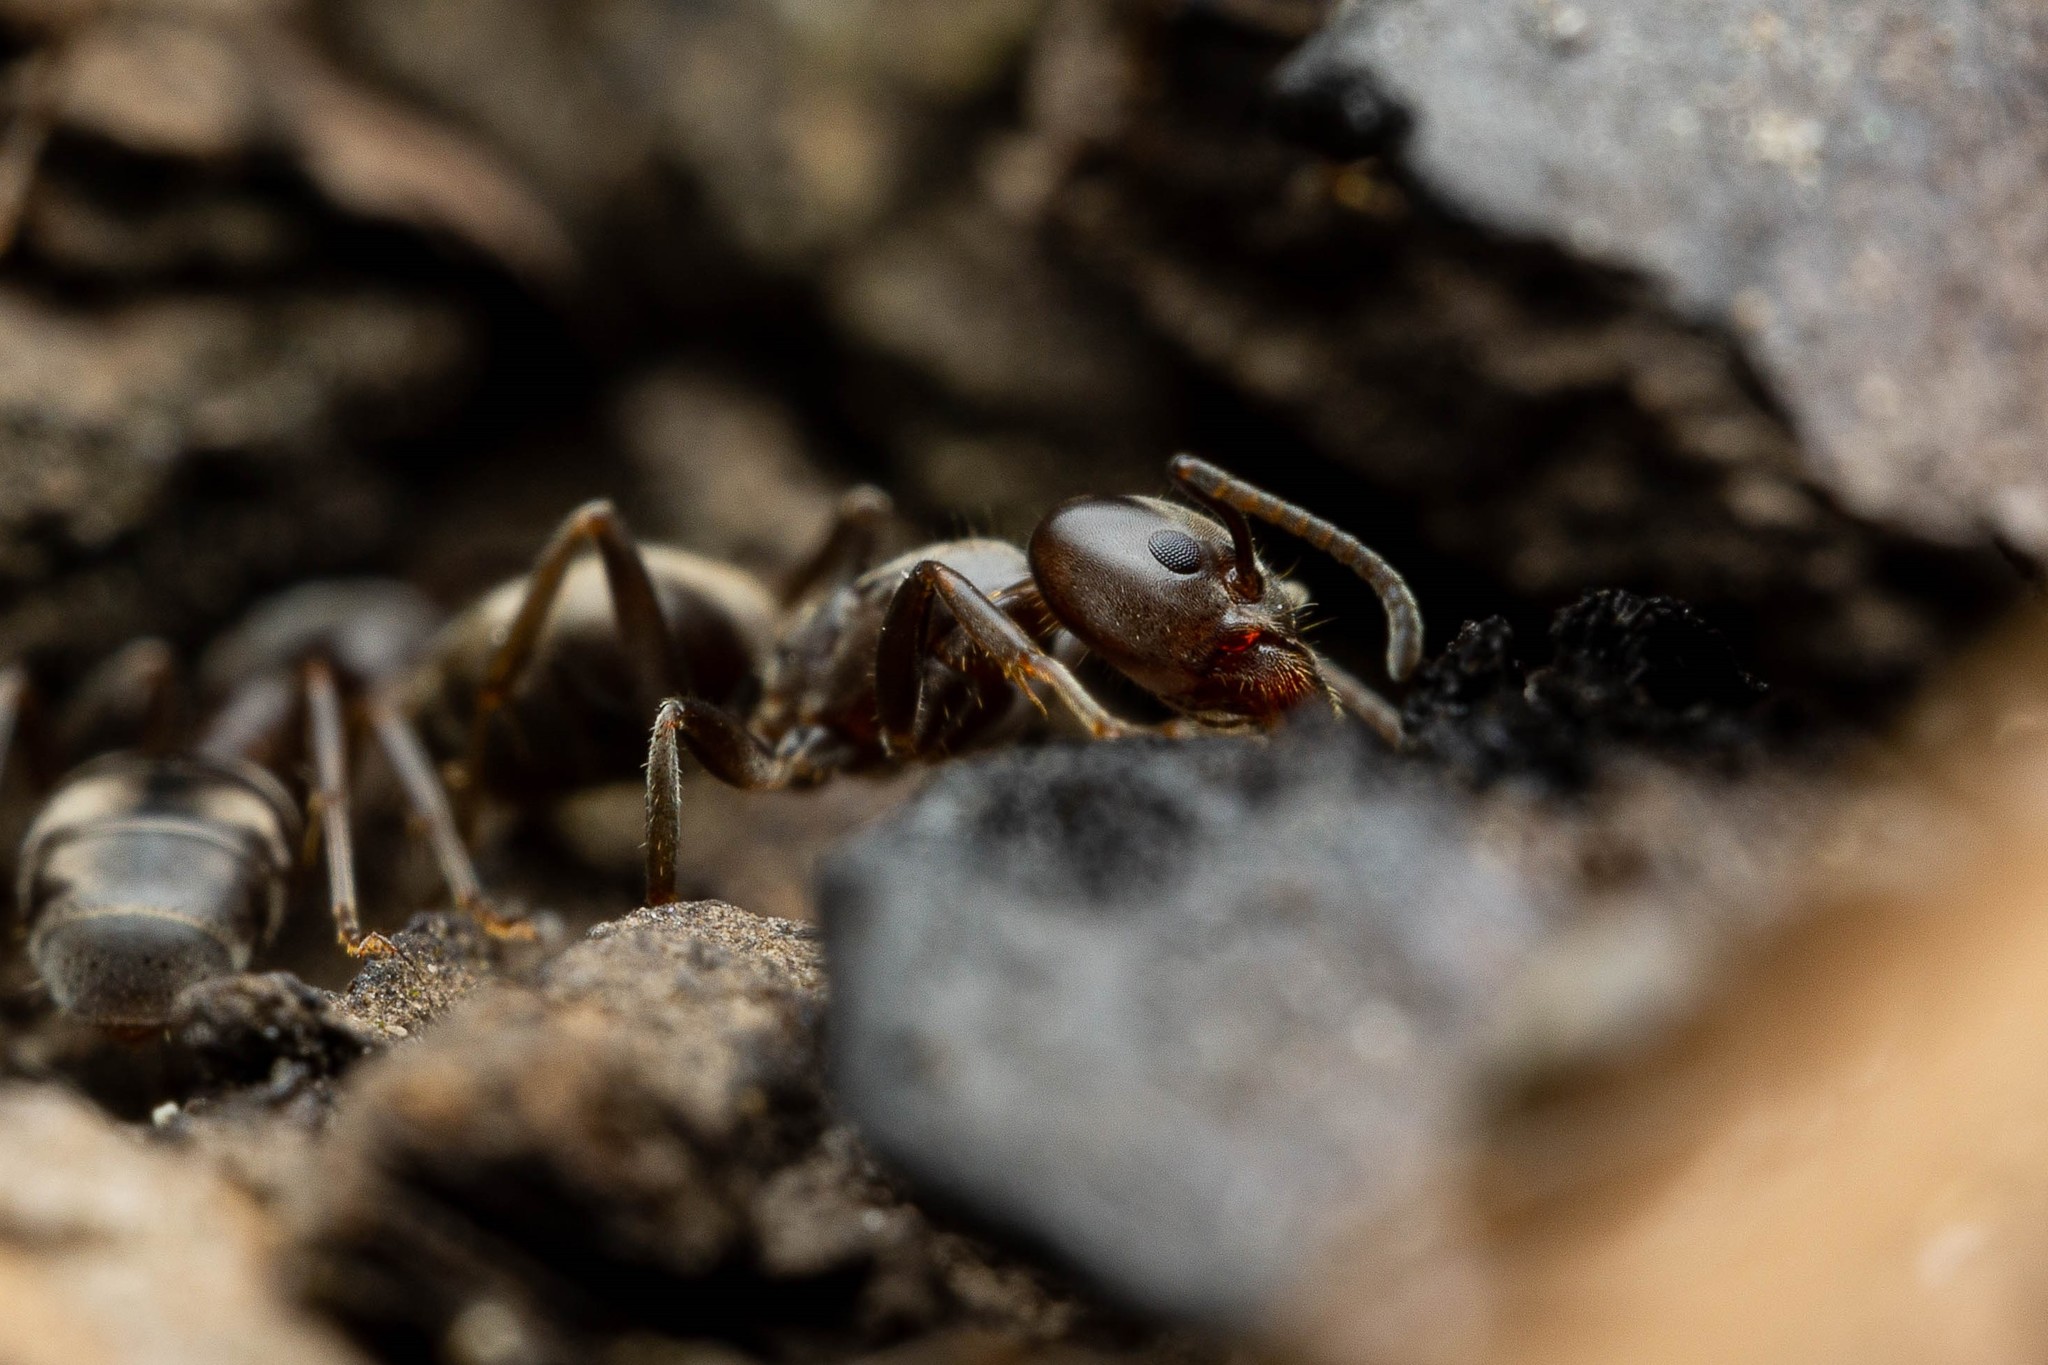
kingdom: Animalia
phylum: Arthropoda
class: Insecta
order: Hymenoptera
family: Formicidae
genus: Liometopum
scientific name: Liometopum luctuosum
